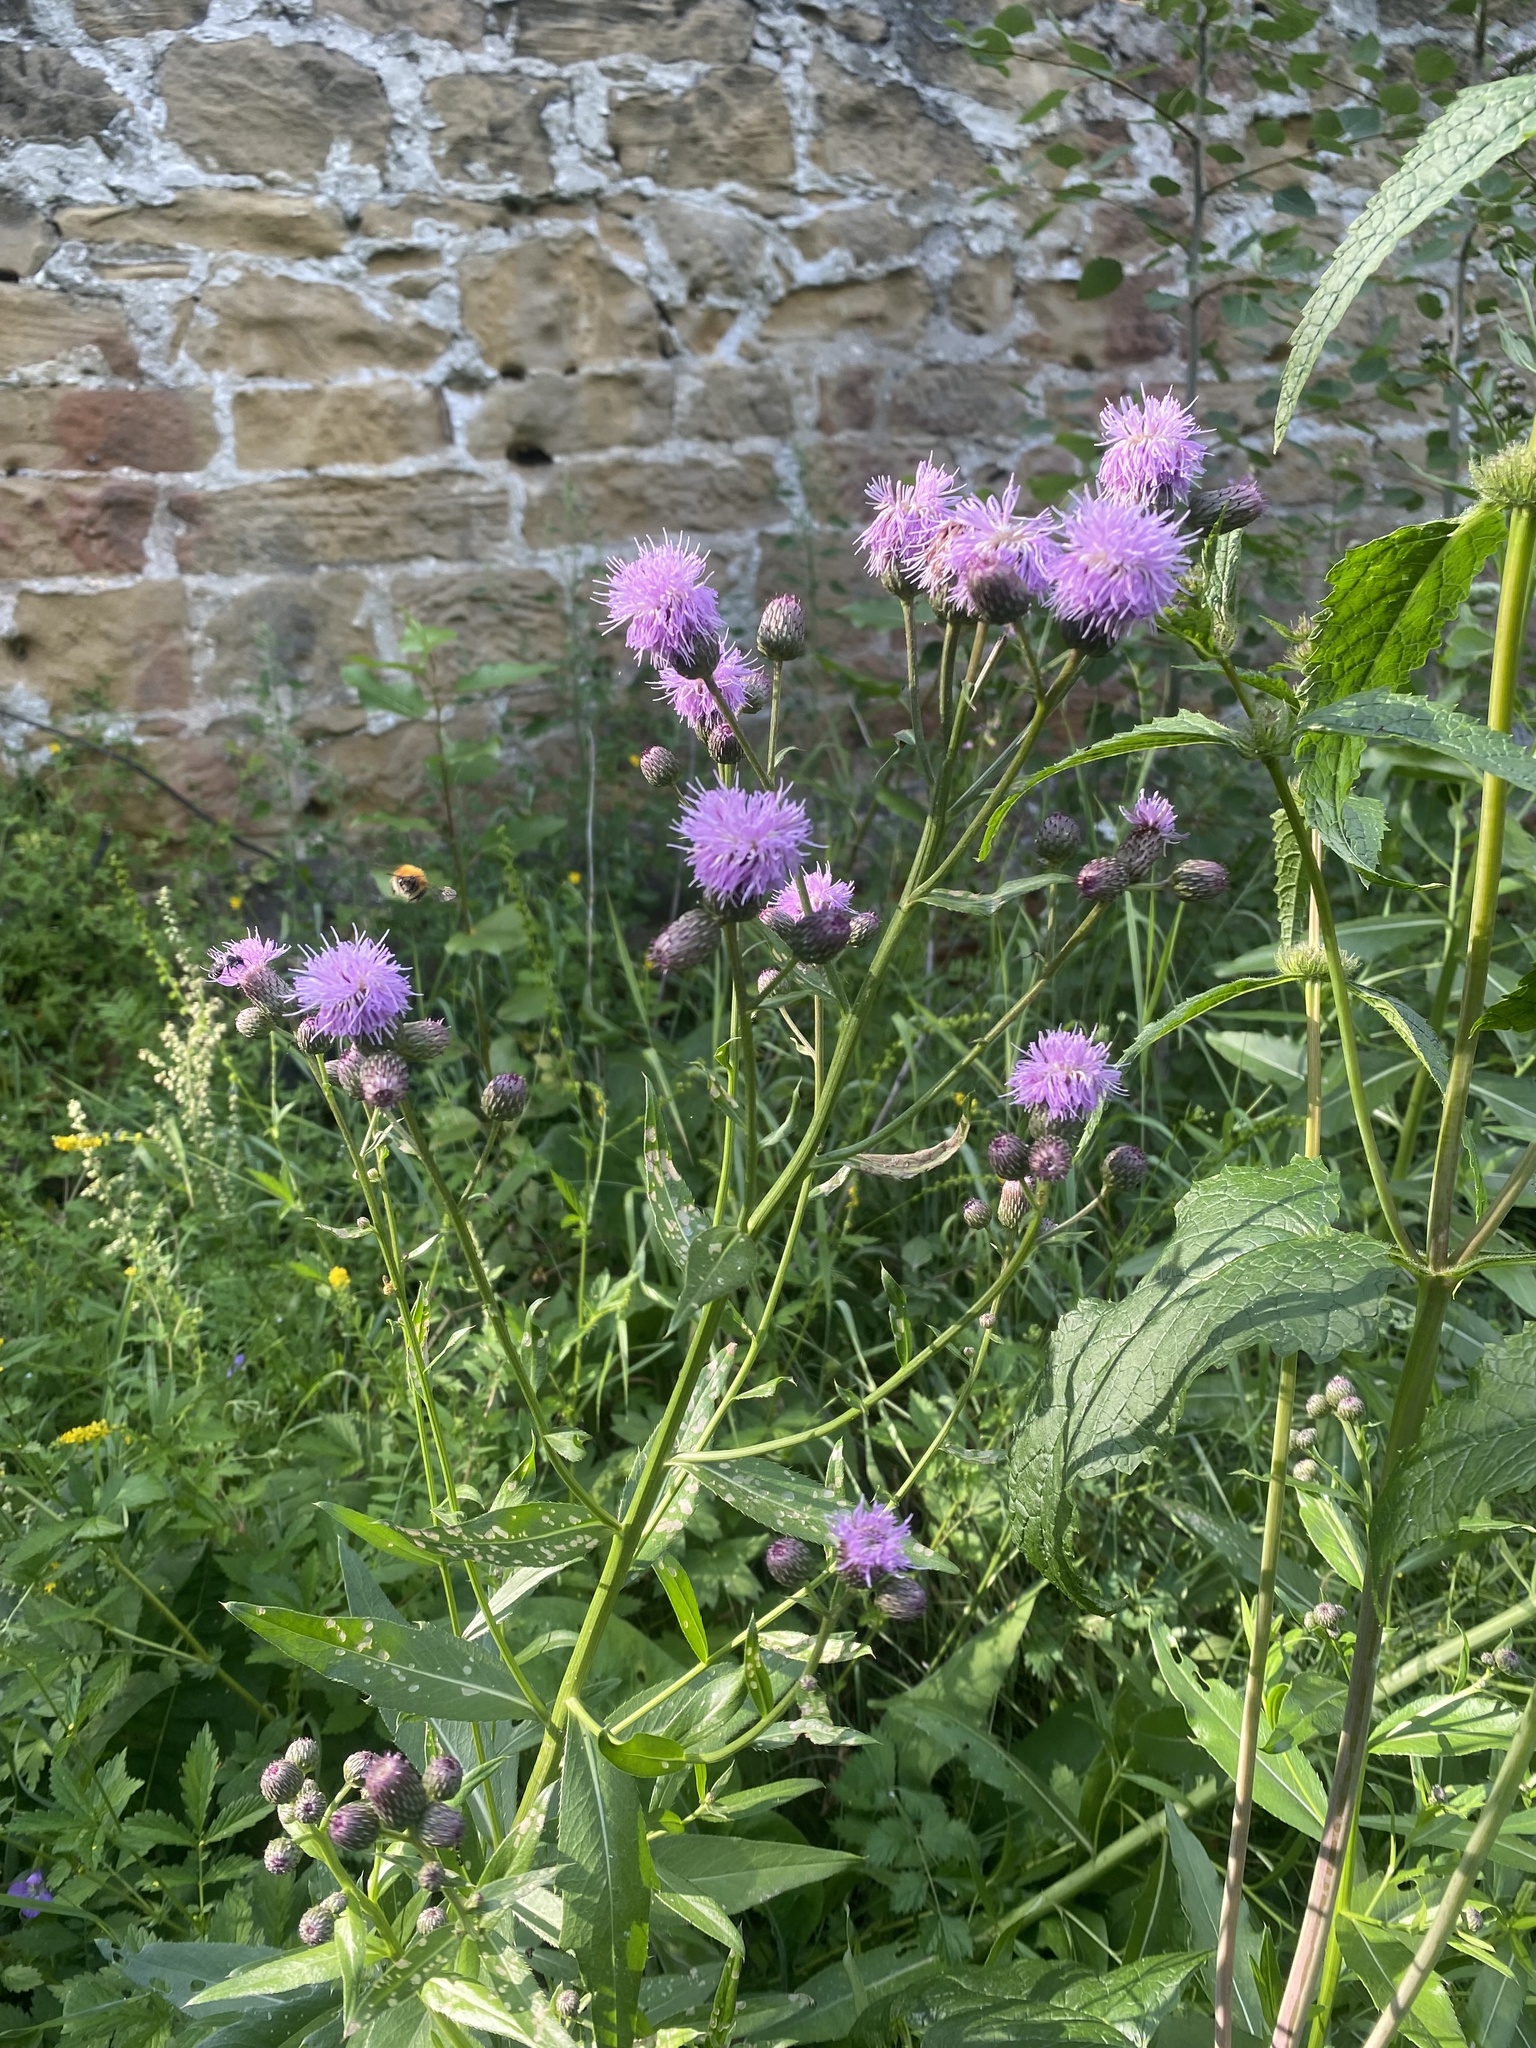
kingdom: Plantae
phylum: Tracheophyta
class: Magnoliopsida
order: Asterales
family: Asteraceae
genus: Cirsium
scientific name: Cirsium arvense
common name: Creeping thistle
